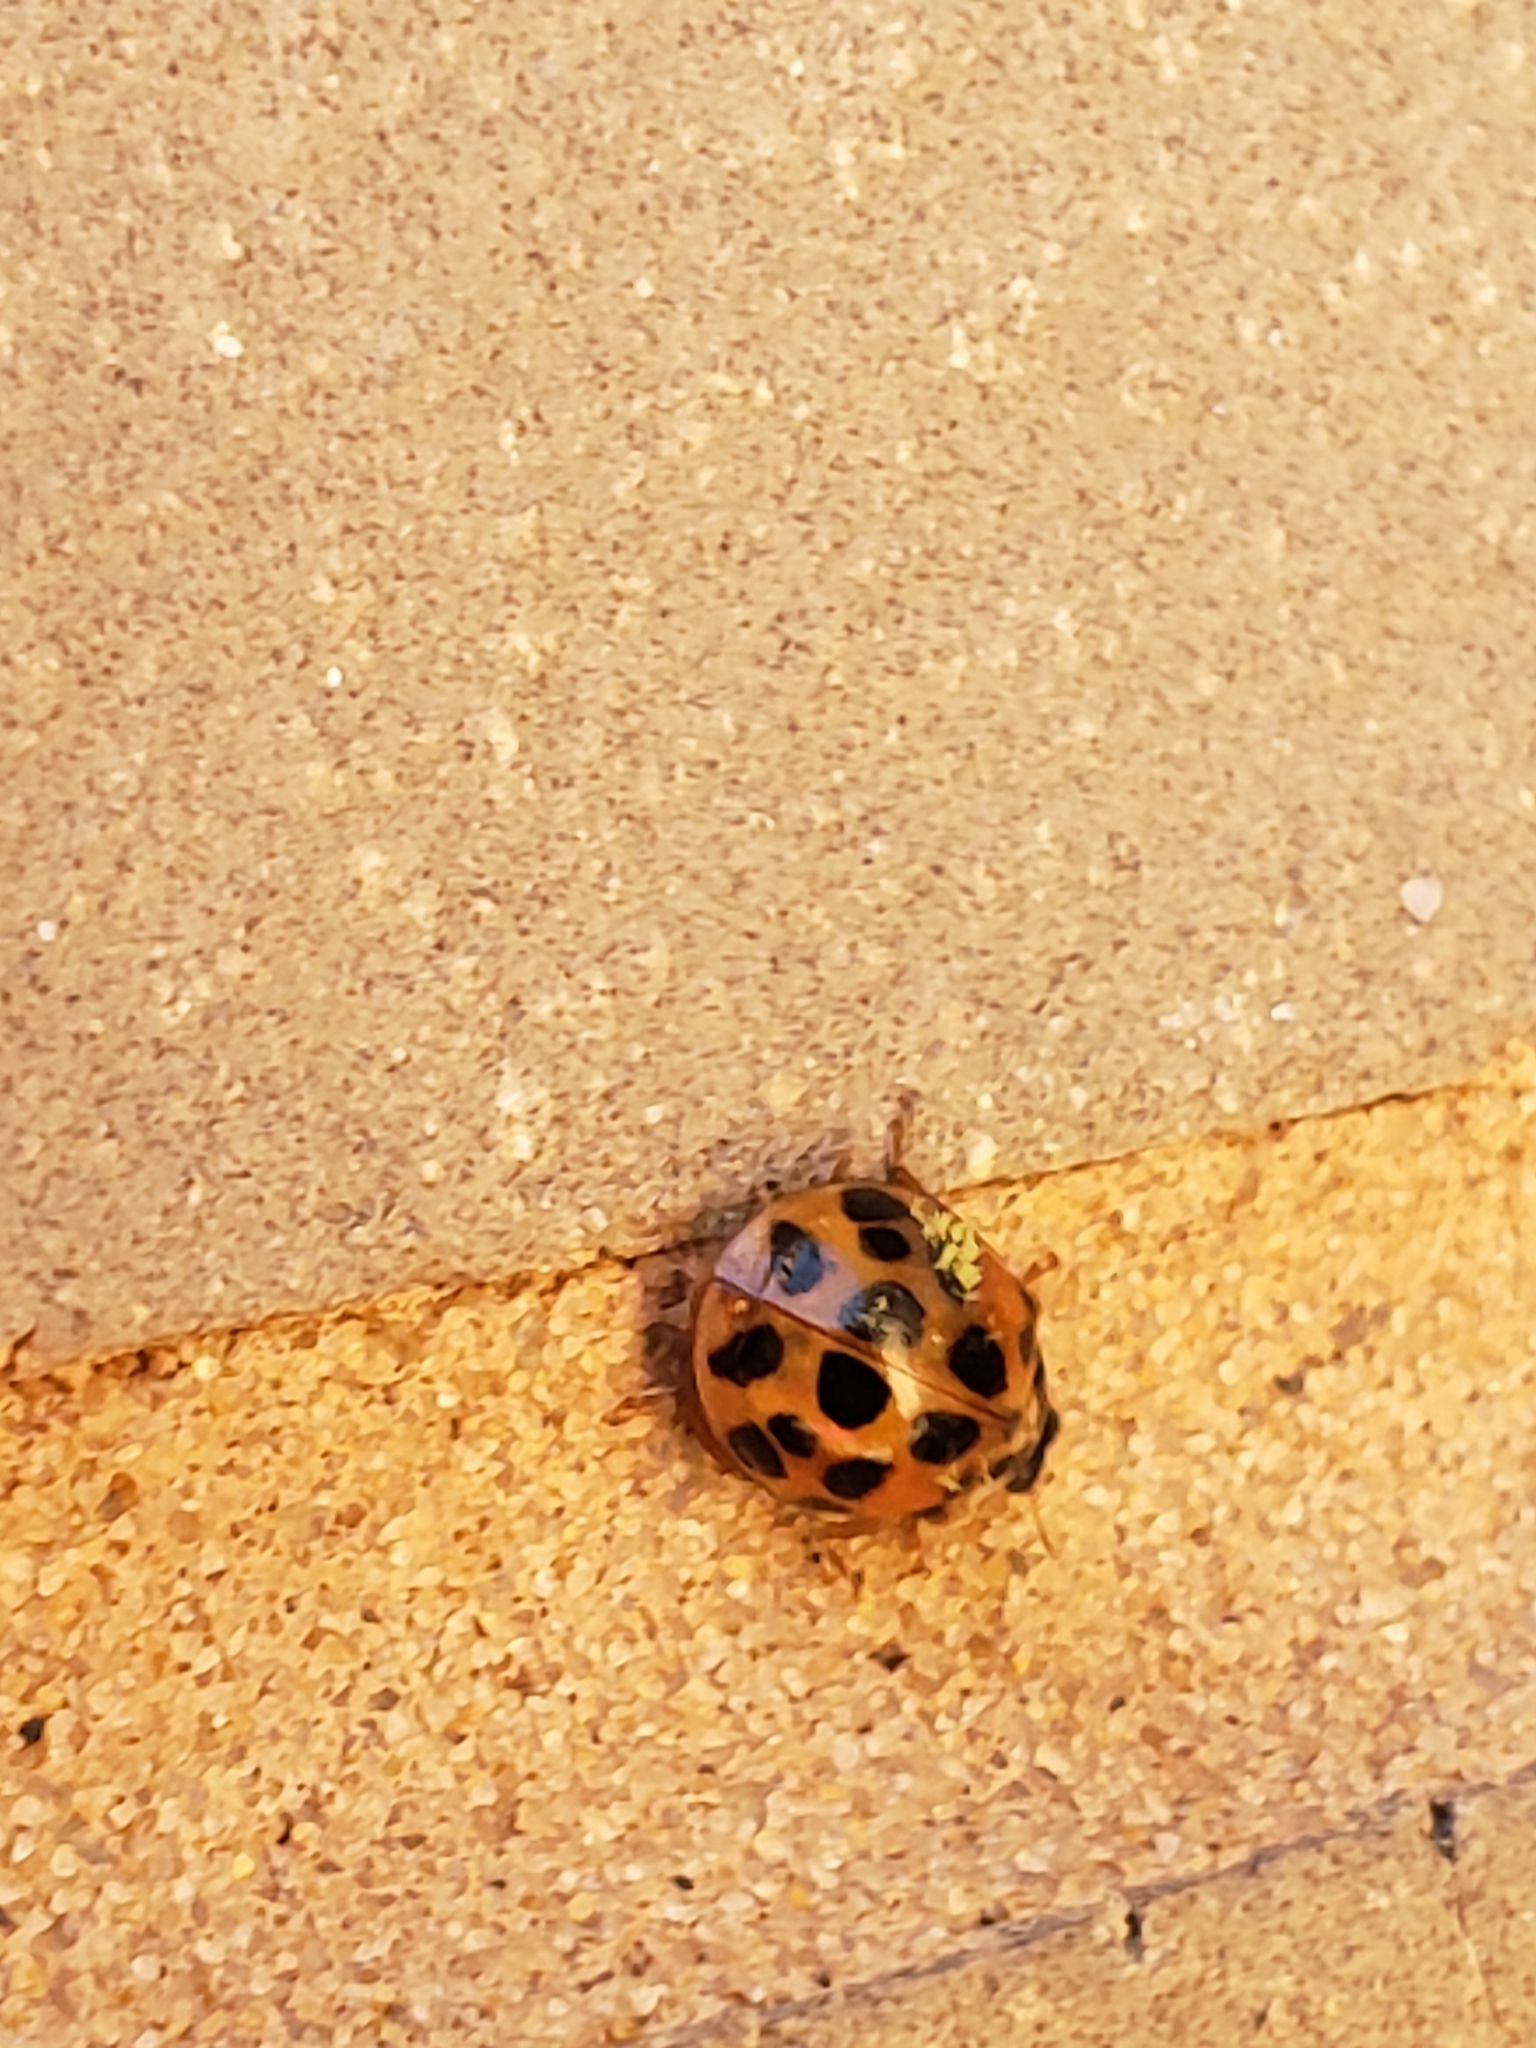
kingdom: Animalia
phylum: Arthropoda
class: Insecta
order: Coleoptera
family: Coccinellidae
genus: Harmonia
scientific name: Harmonia axyridis
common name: Harlequin ladybird
